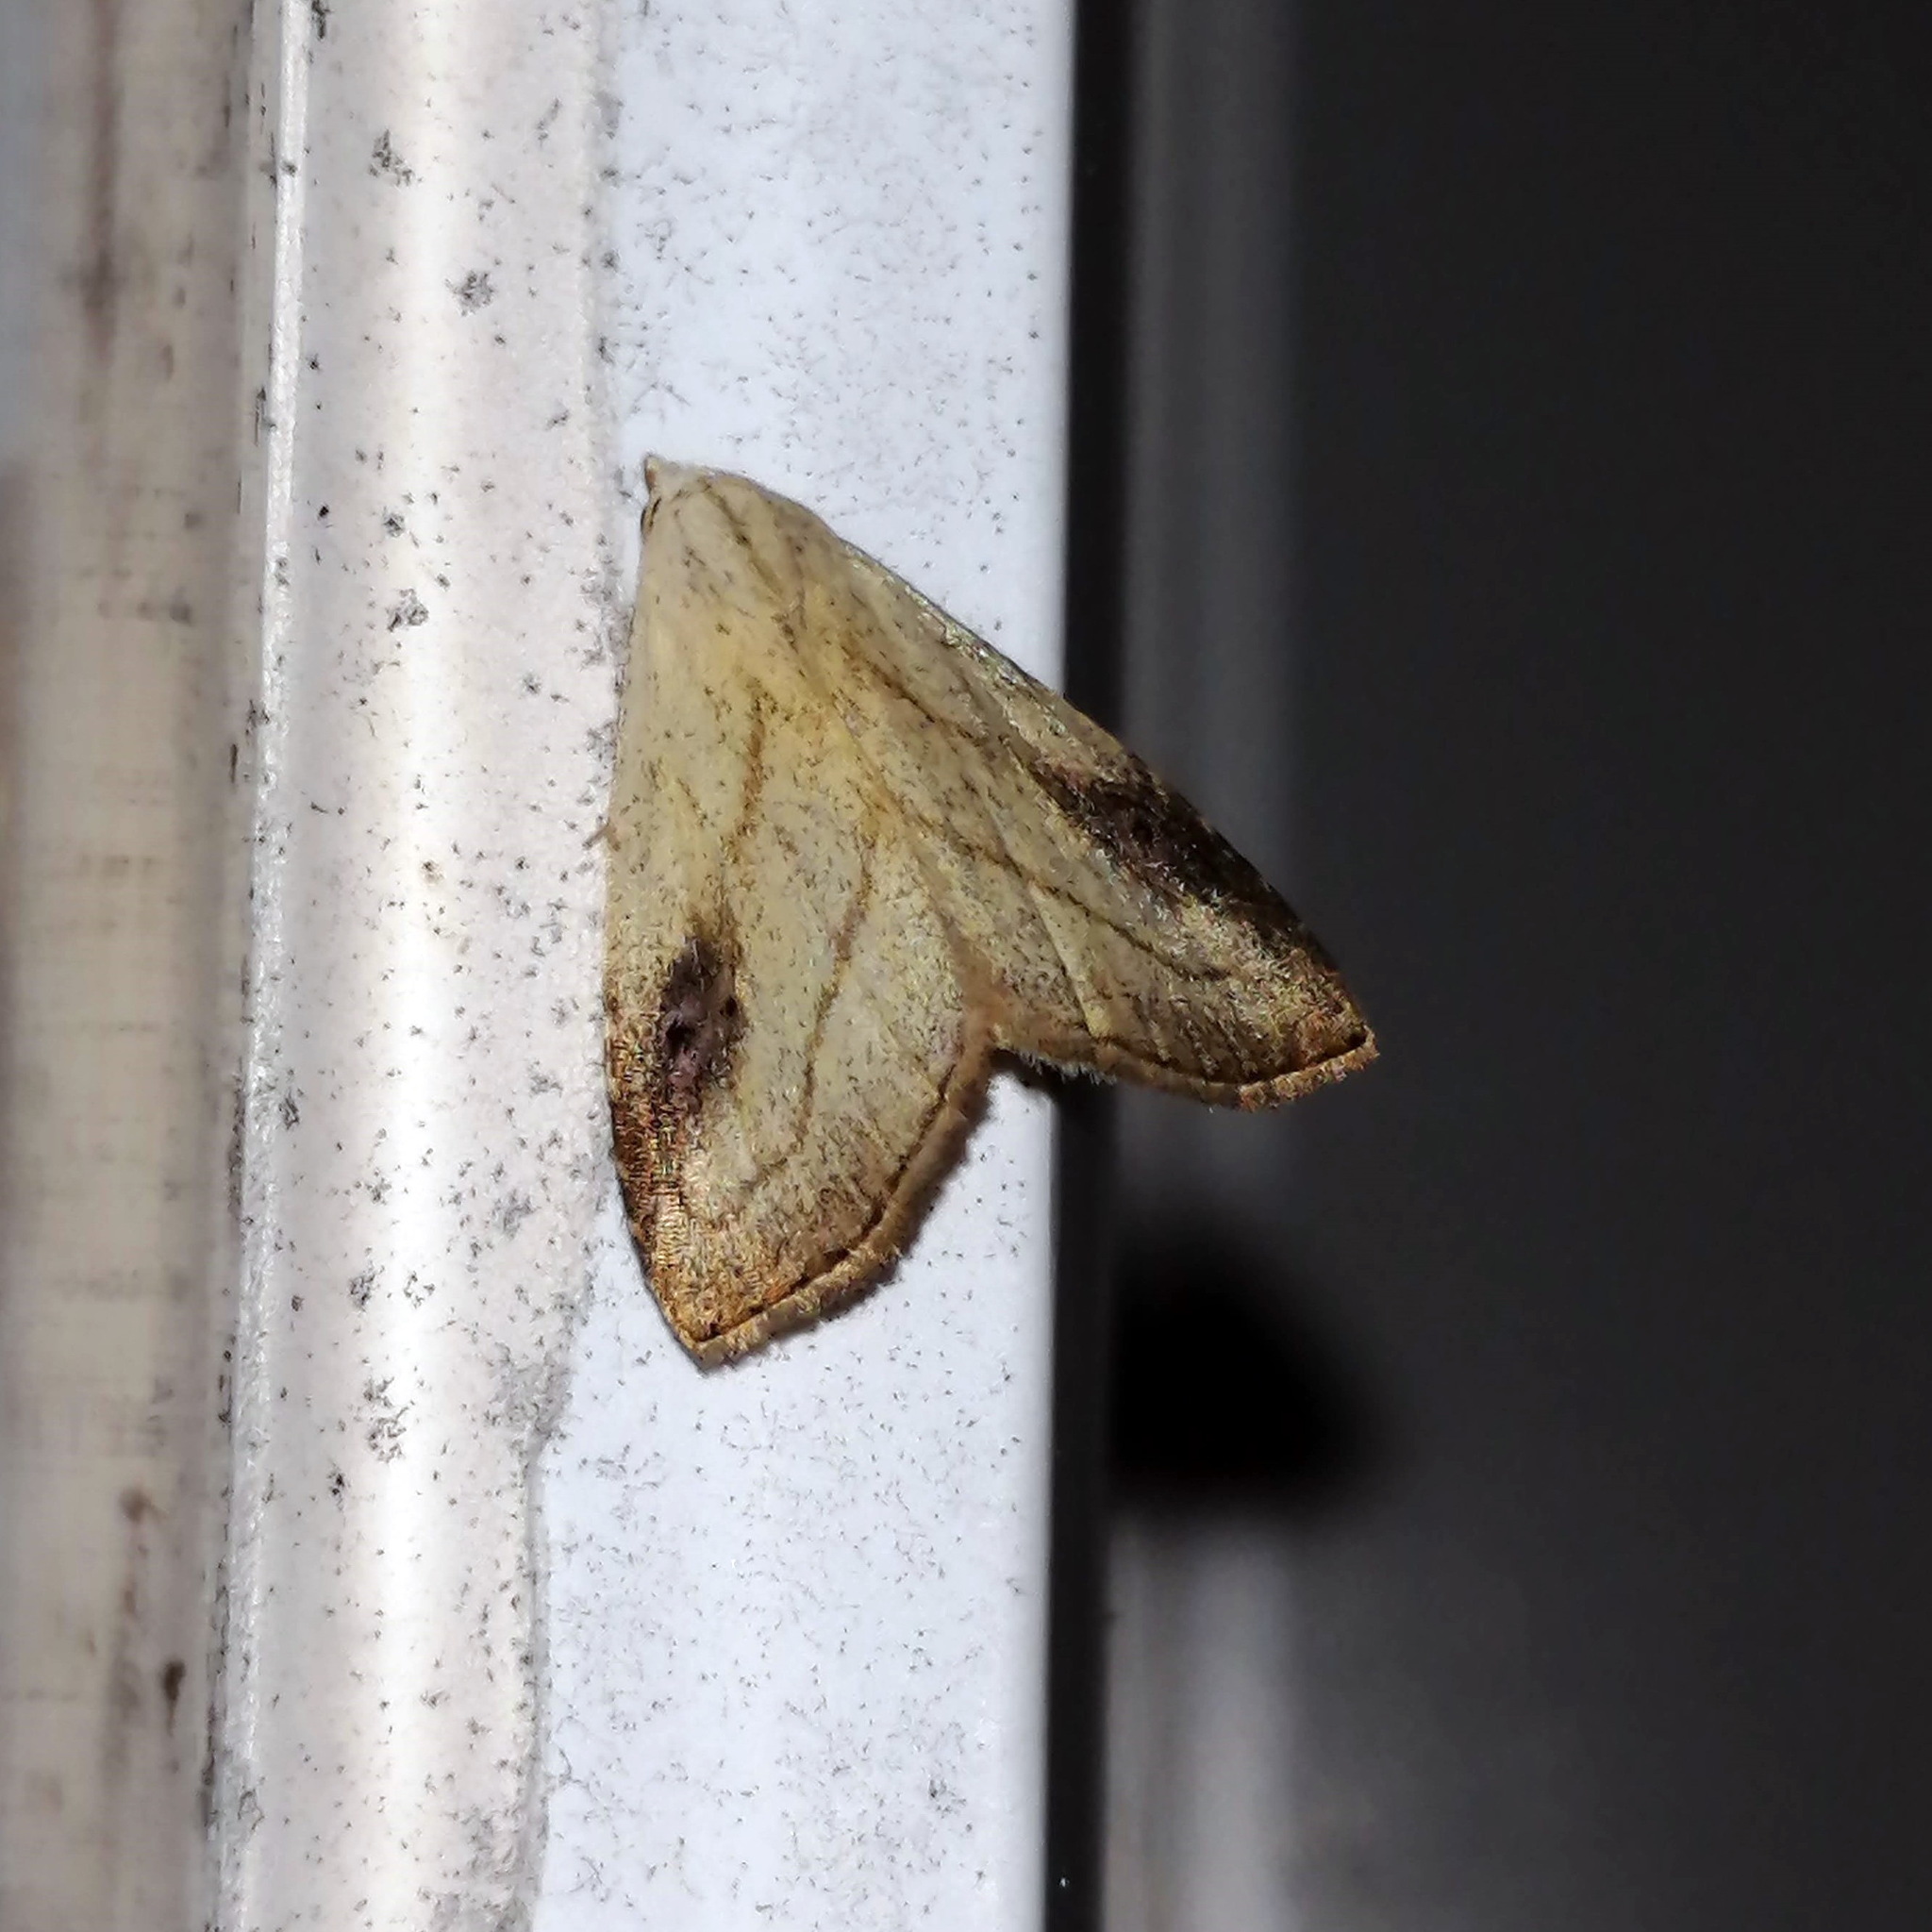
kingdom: Animalia
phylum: Arthropoda
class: Insecta
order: Lepidoptera
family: Erebidae
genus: Rivula
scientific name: Rivula propinqualis
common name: Spotted grass moth
